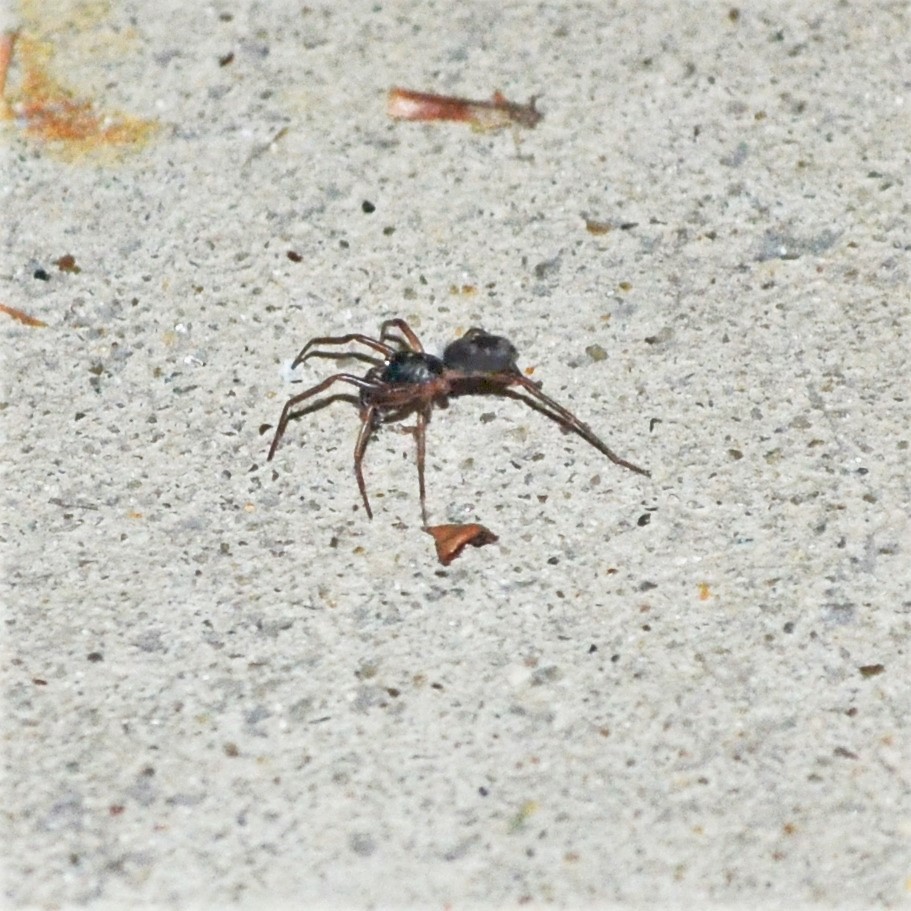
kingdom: Animalia
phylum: Arthropoda
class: Arachnida
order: Araneae
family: Corinnidae
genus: Falconina
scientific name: Falconina gracilis
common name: Antmimic spider
